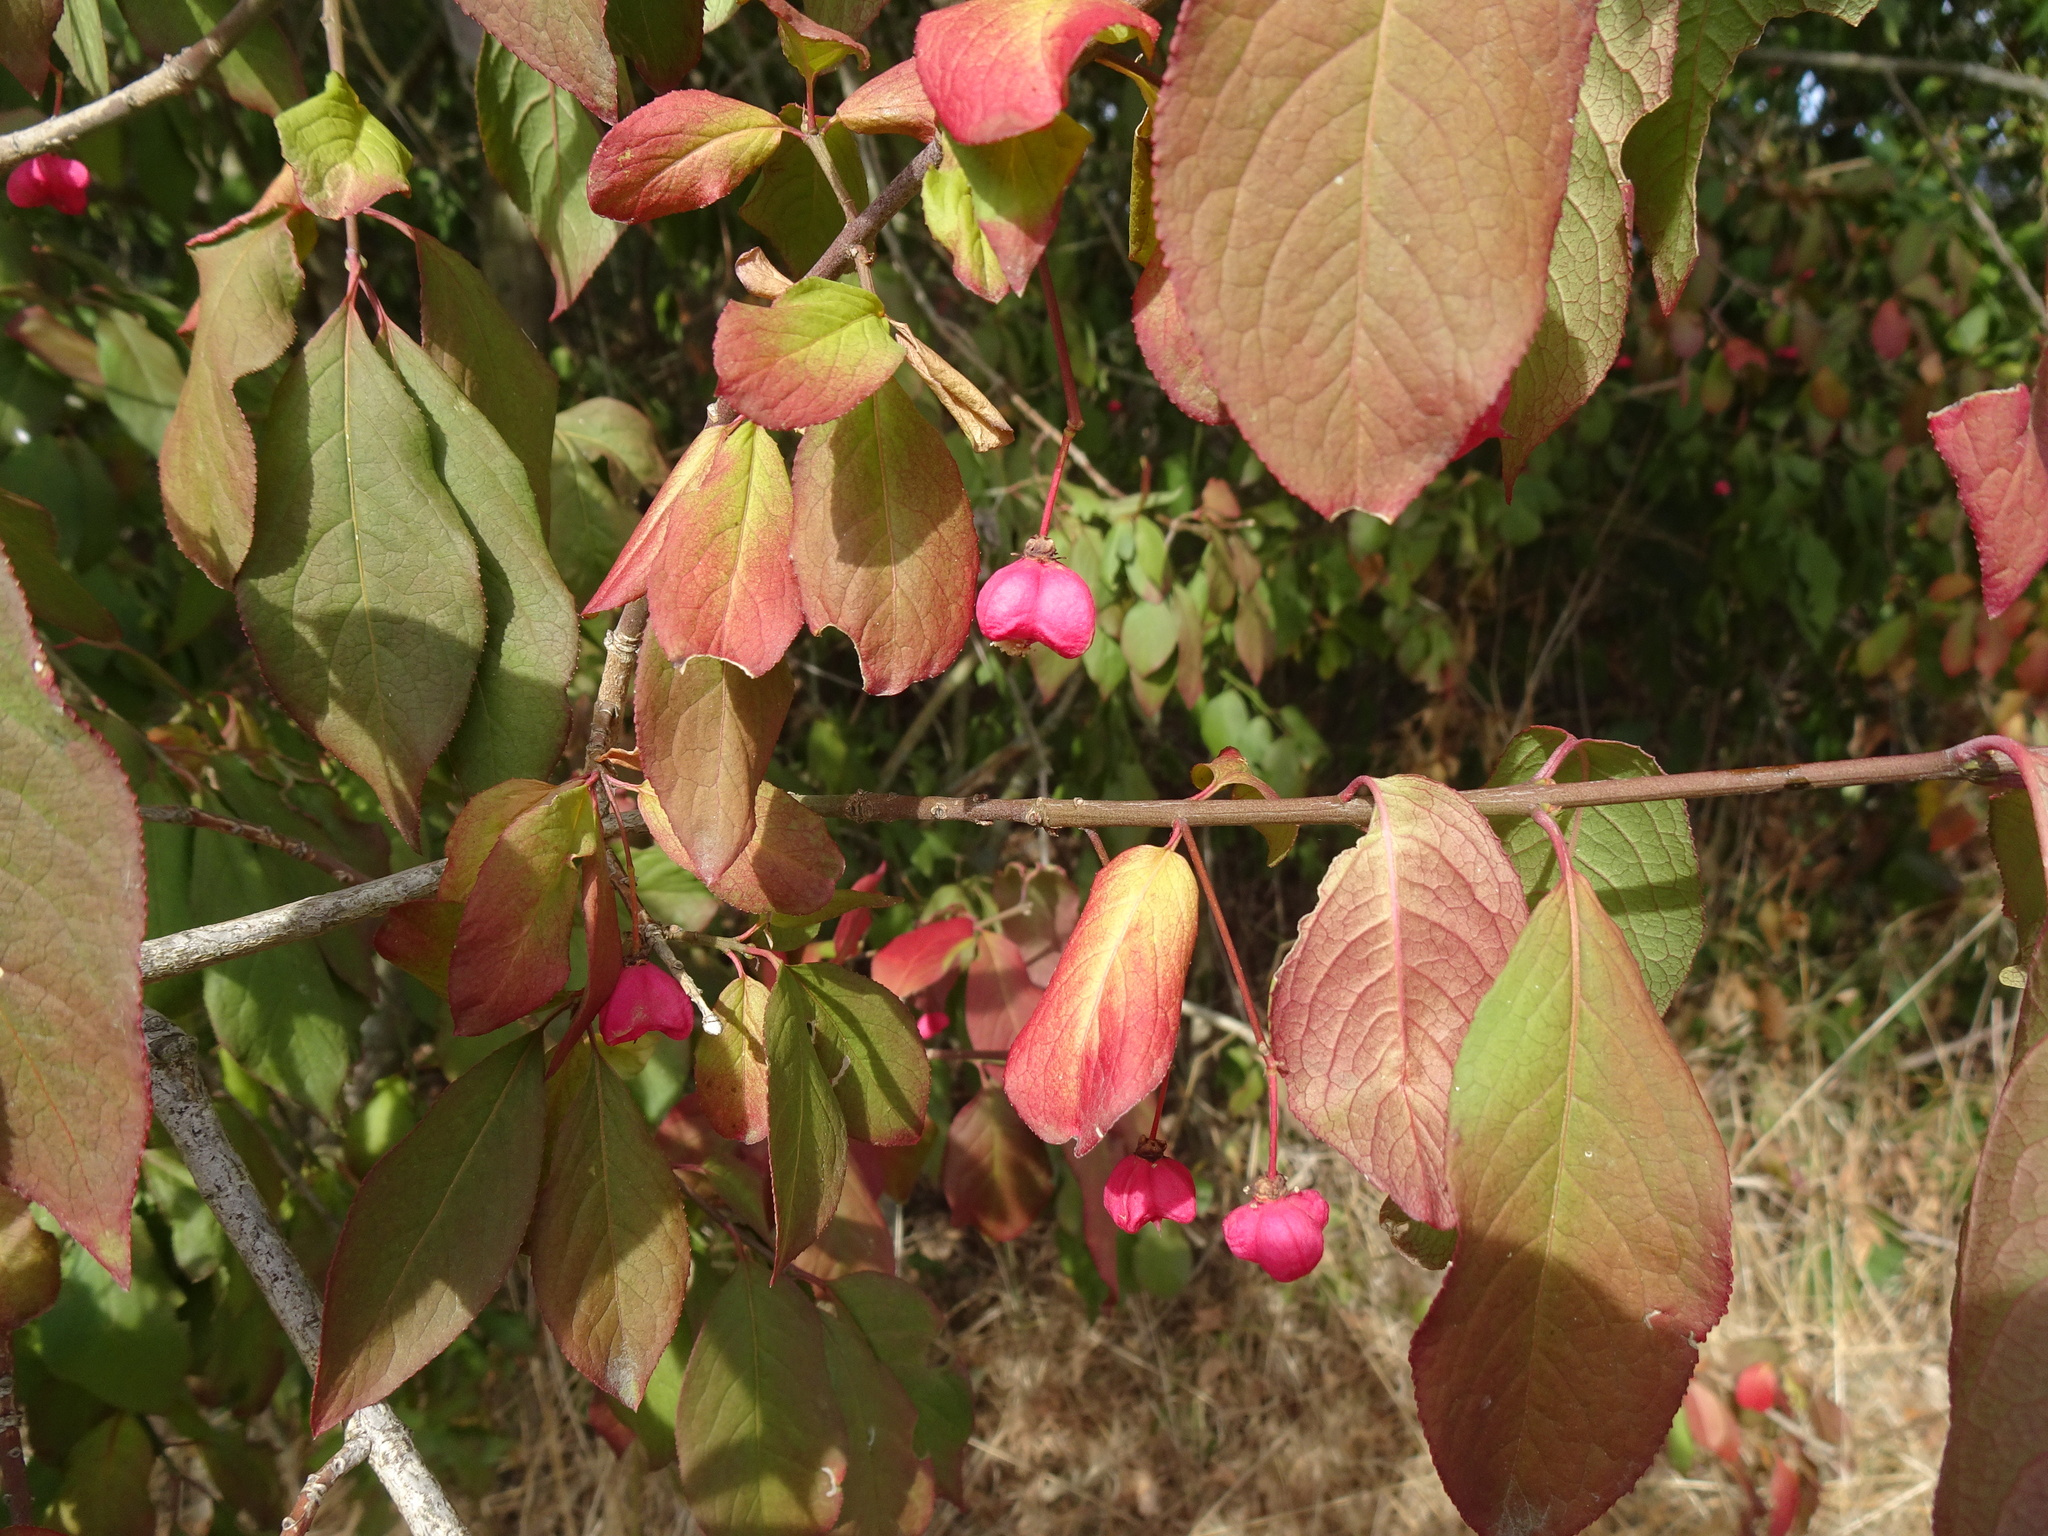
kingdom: Plantae
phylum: Tracheophyta
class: Magnoliopsida
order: Celastrales
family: Celastraceae
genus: Euonymus
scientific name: Euonymus europaeus
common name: Spindle
